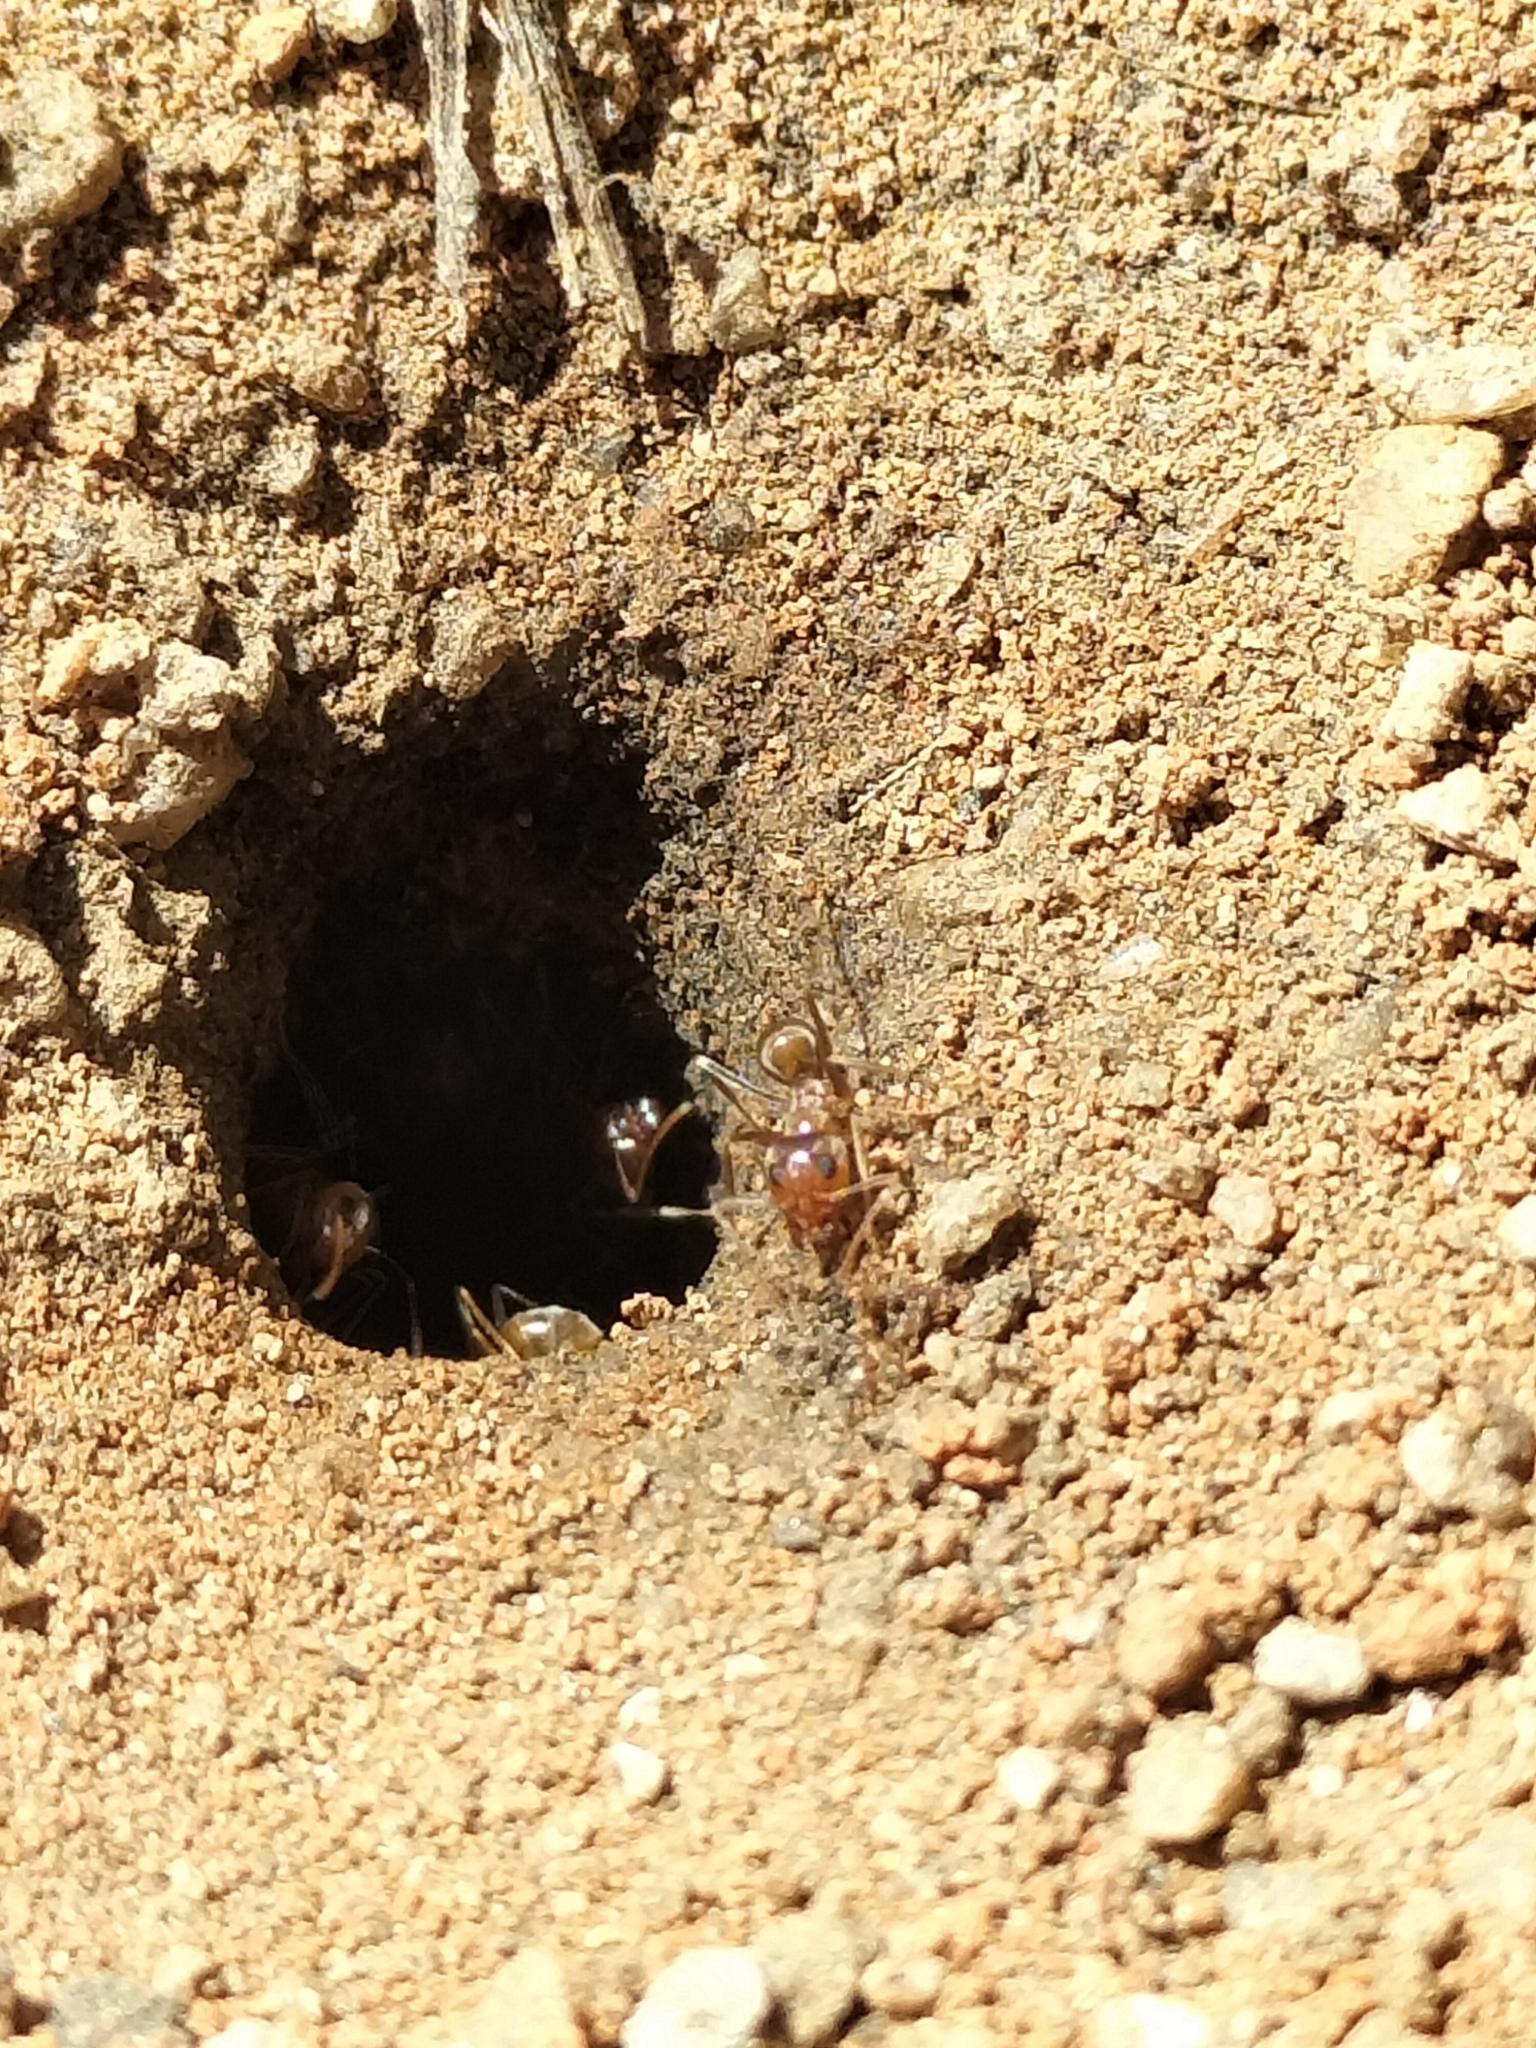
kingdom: Animalia
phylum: Arthropoda
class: Insecta
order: Hymenoptera
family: Formicidae
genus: Iridomyrmex
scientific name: Iridomyrmex pallidus
